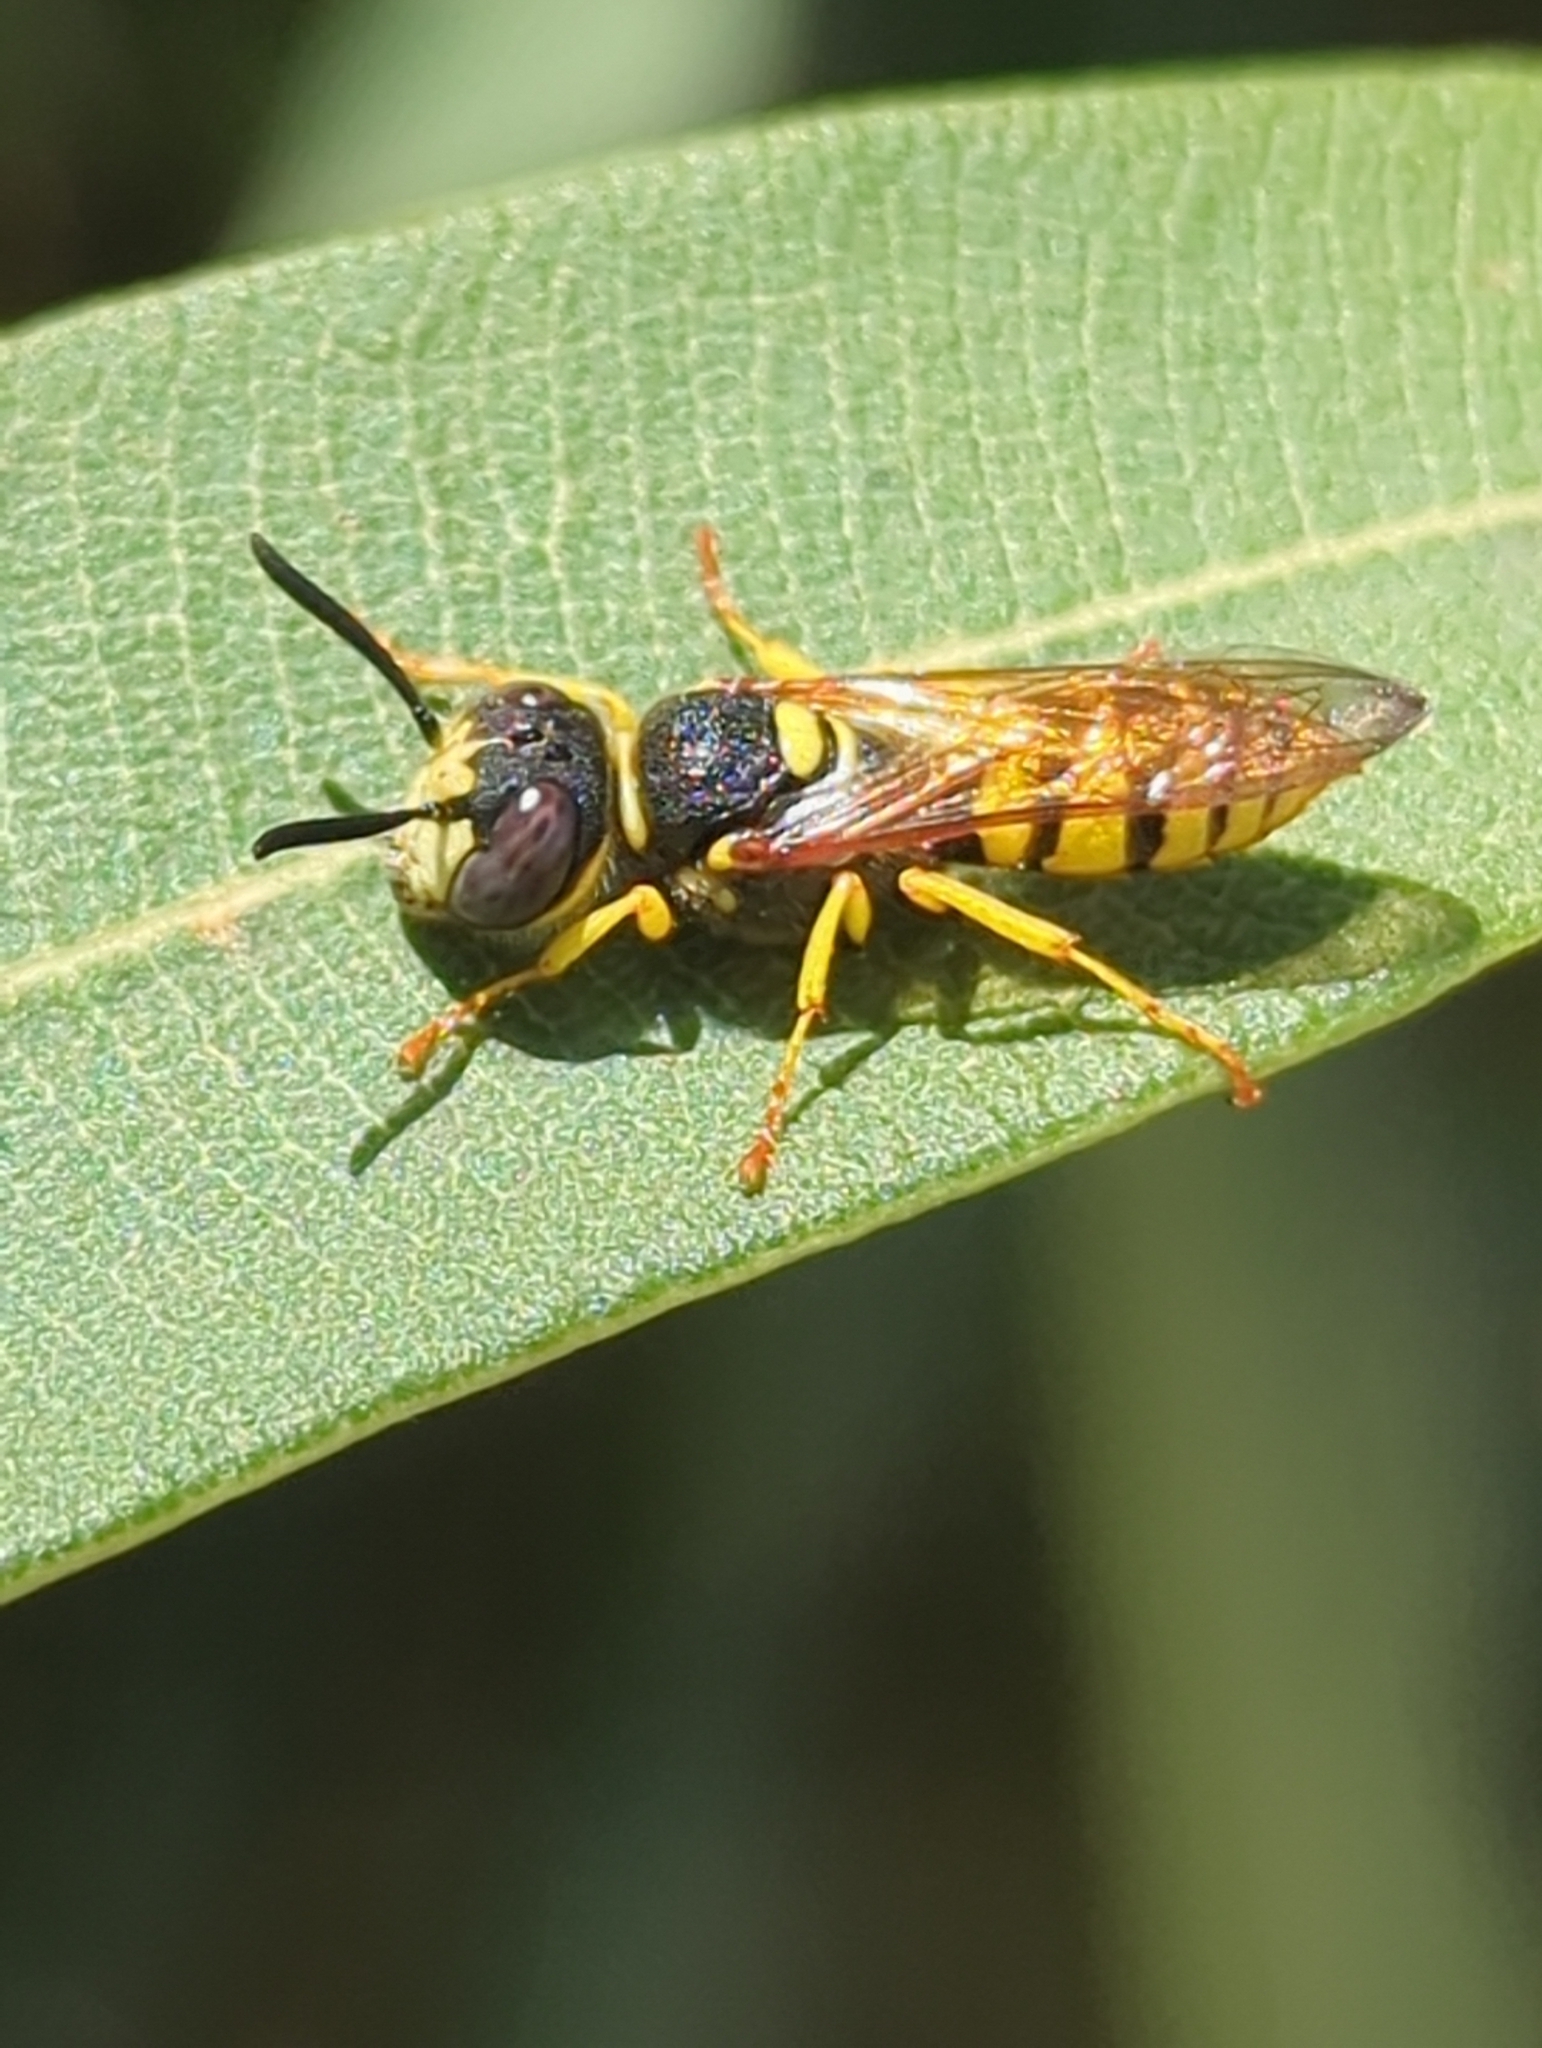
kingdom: Animalia
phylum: Arthropoda
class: Insecta
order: Hymenoptera
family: Crabronidae
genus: Philanthus
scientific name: Philanthus triangulum
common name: Bee wolf
